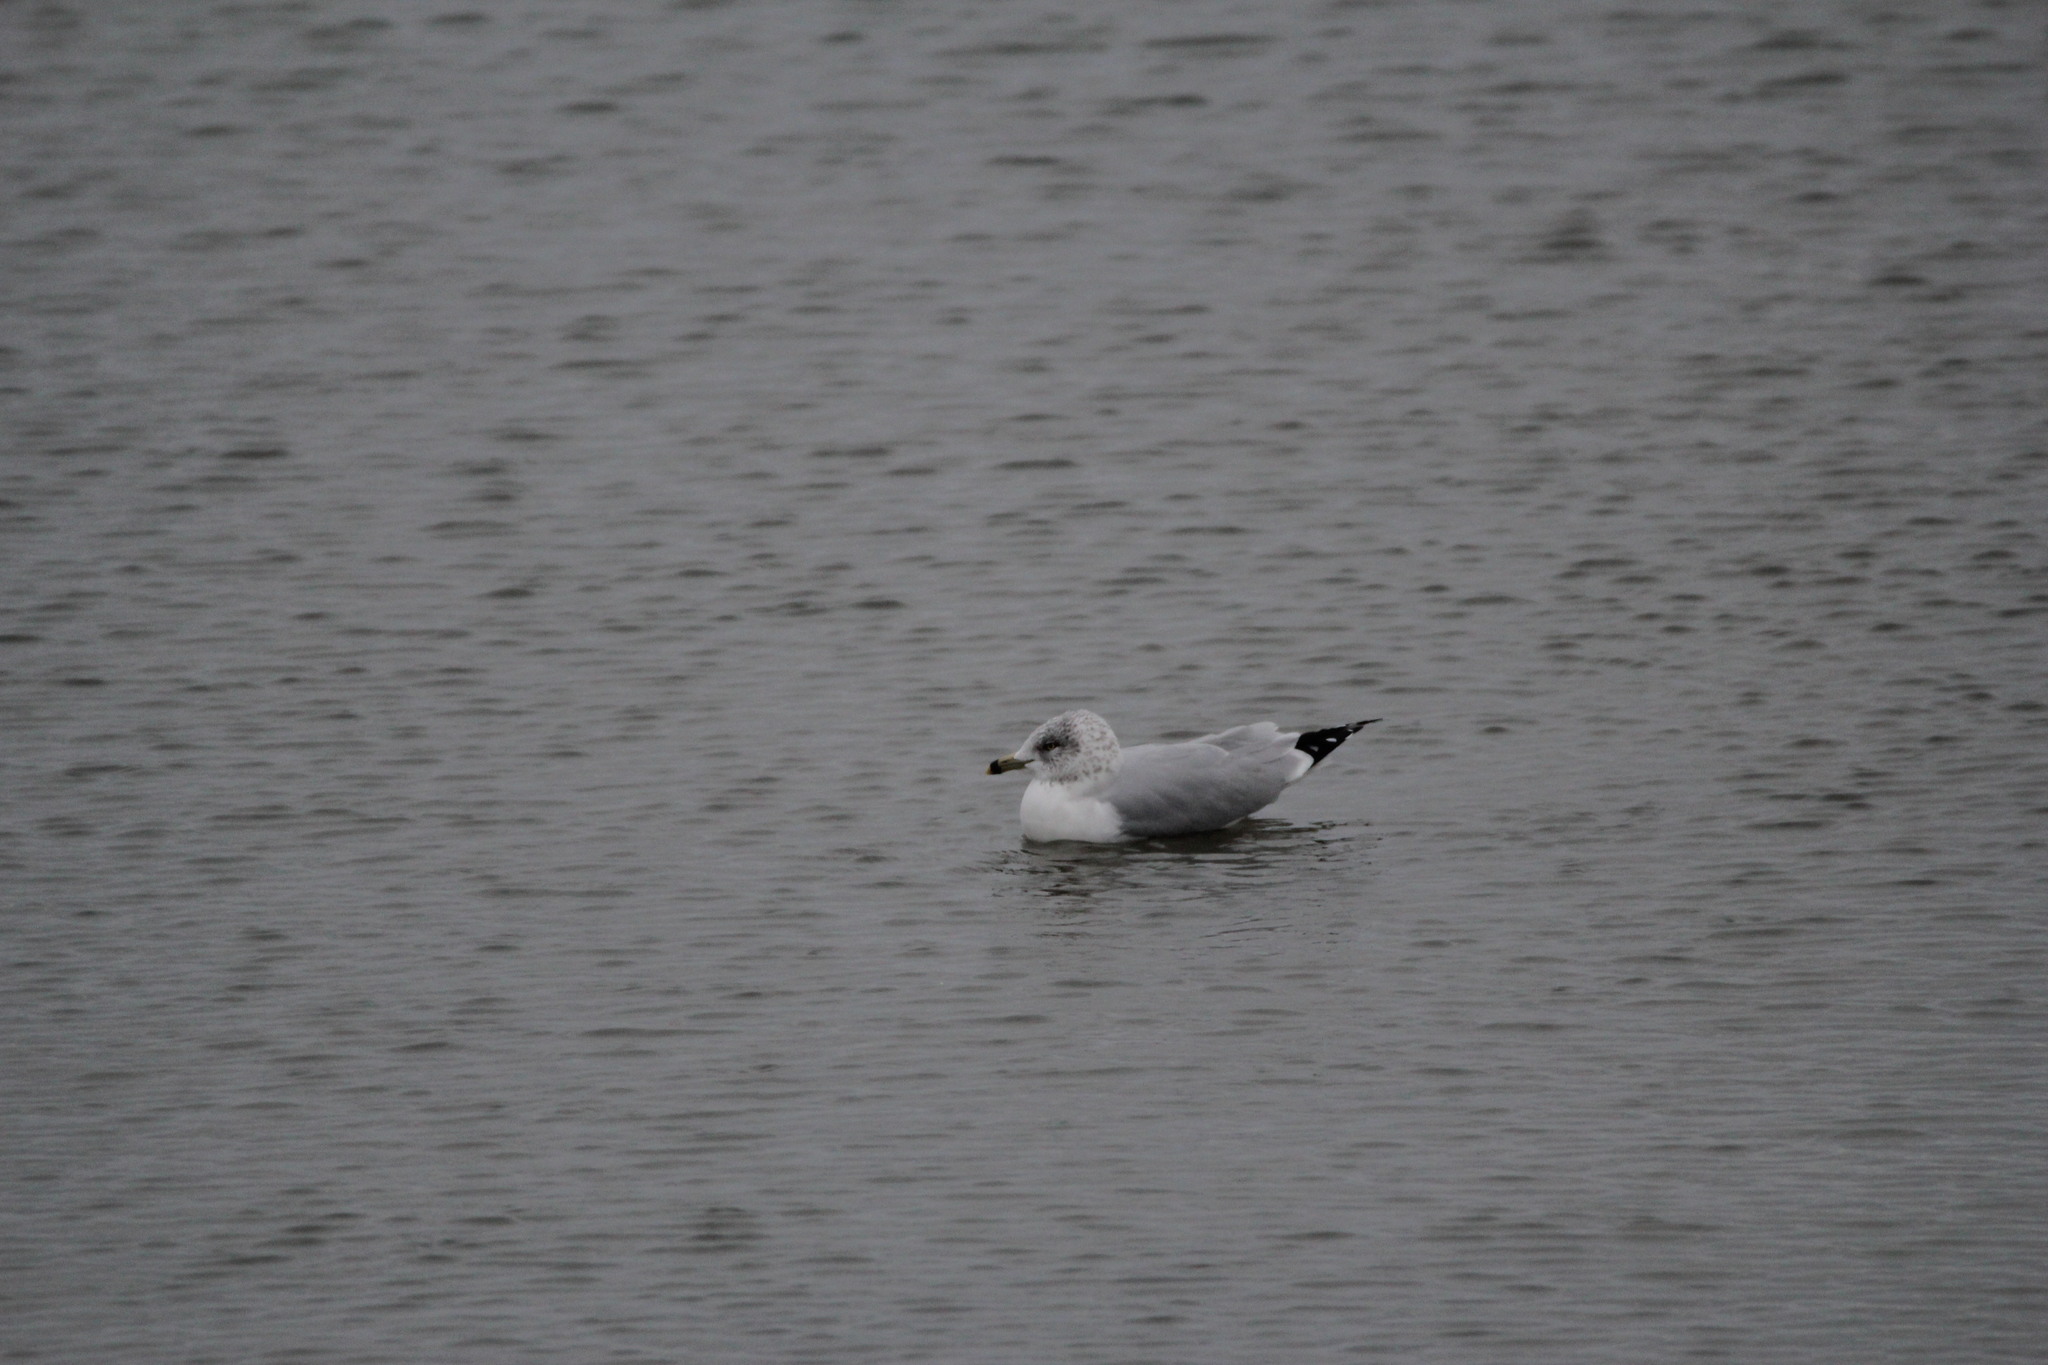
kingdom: Animalia
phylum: Chordata
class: Aves
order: Charadriiformes
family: Laridae
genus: Larus
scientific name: Larus delawarensis
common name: Ring-billed gull
